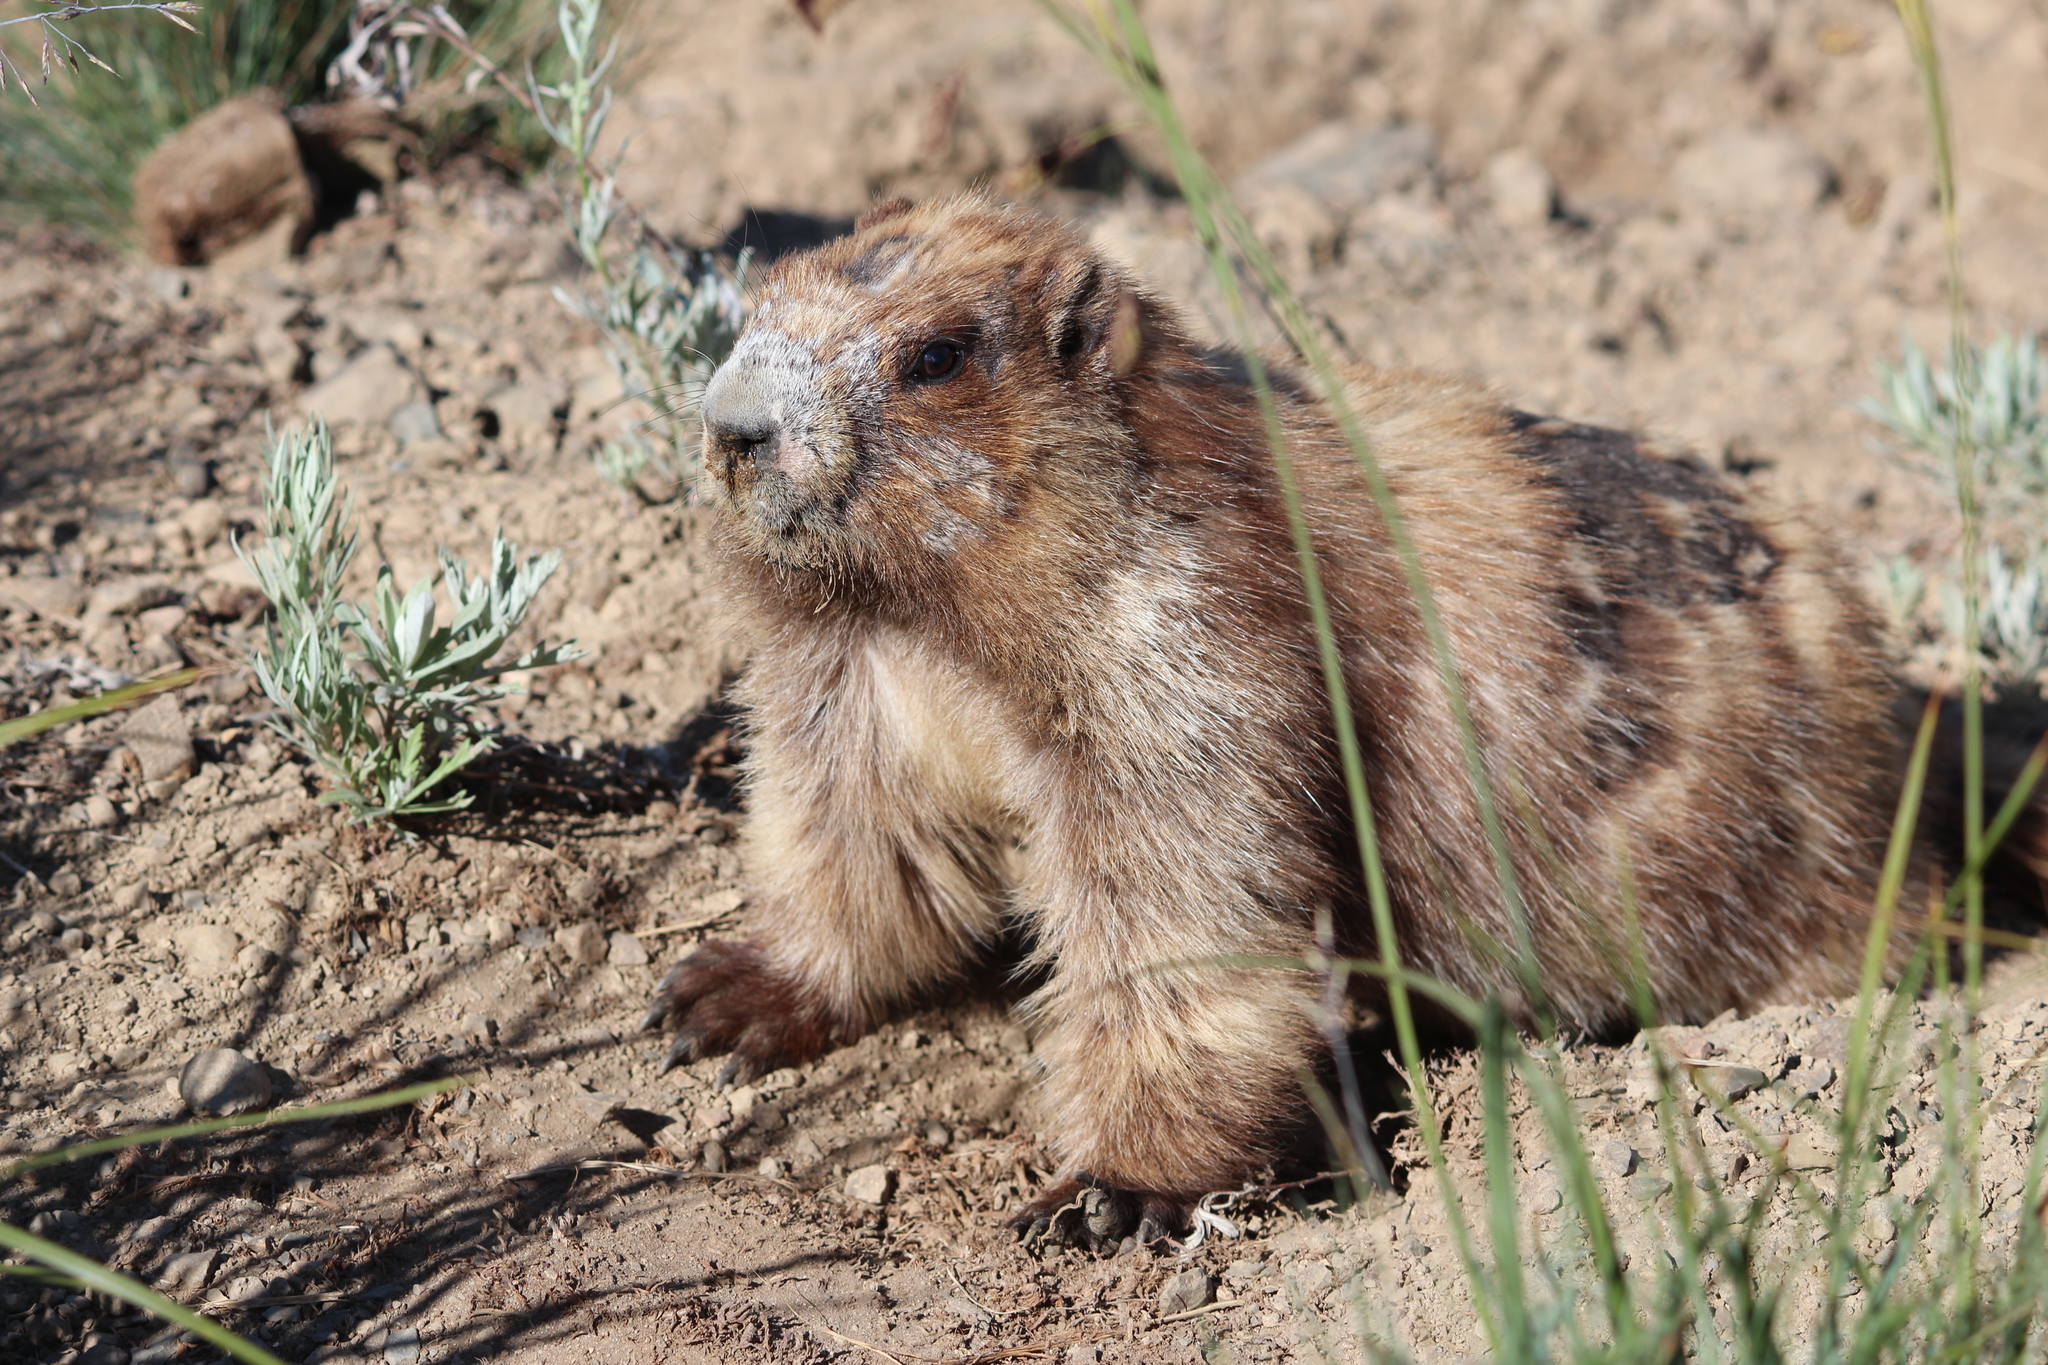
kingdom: Animalia
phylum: Chordata
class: Mammalia
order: Rodentia
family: Sciuridae
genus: Marmota
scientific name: Marmota olympus
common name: Olympic marmot
